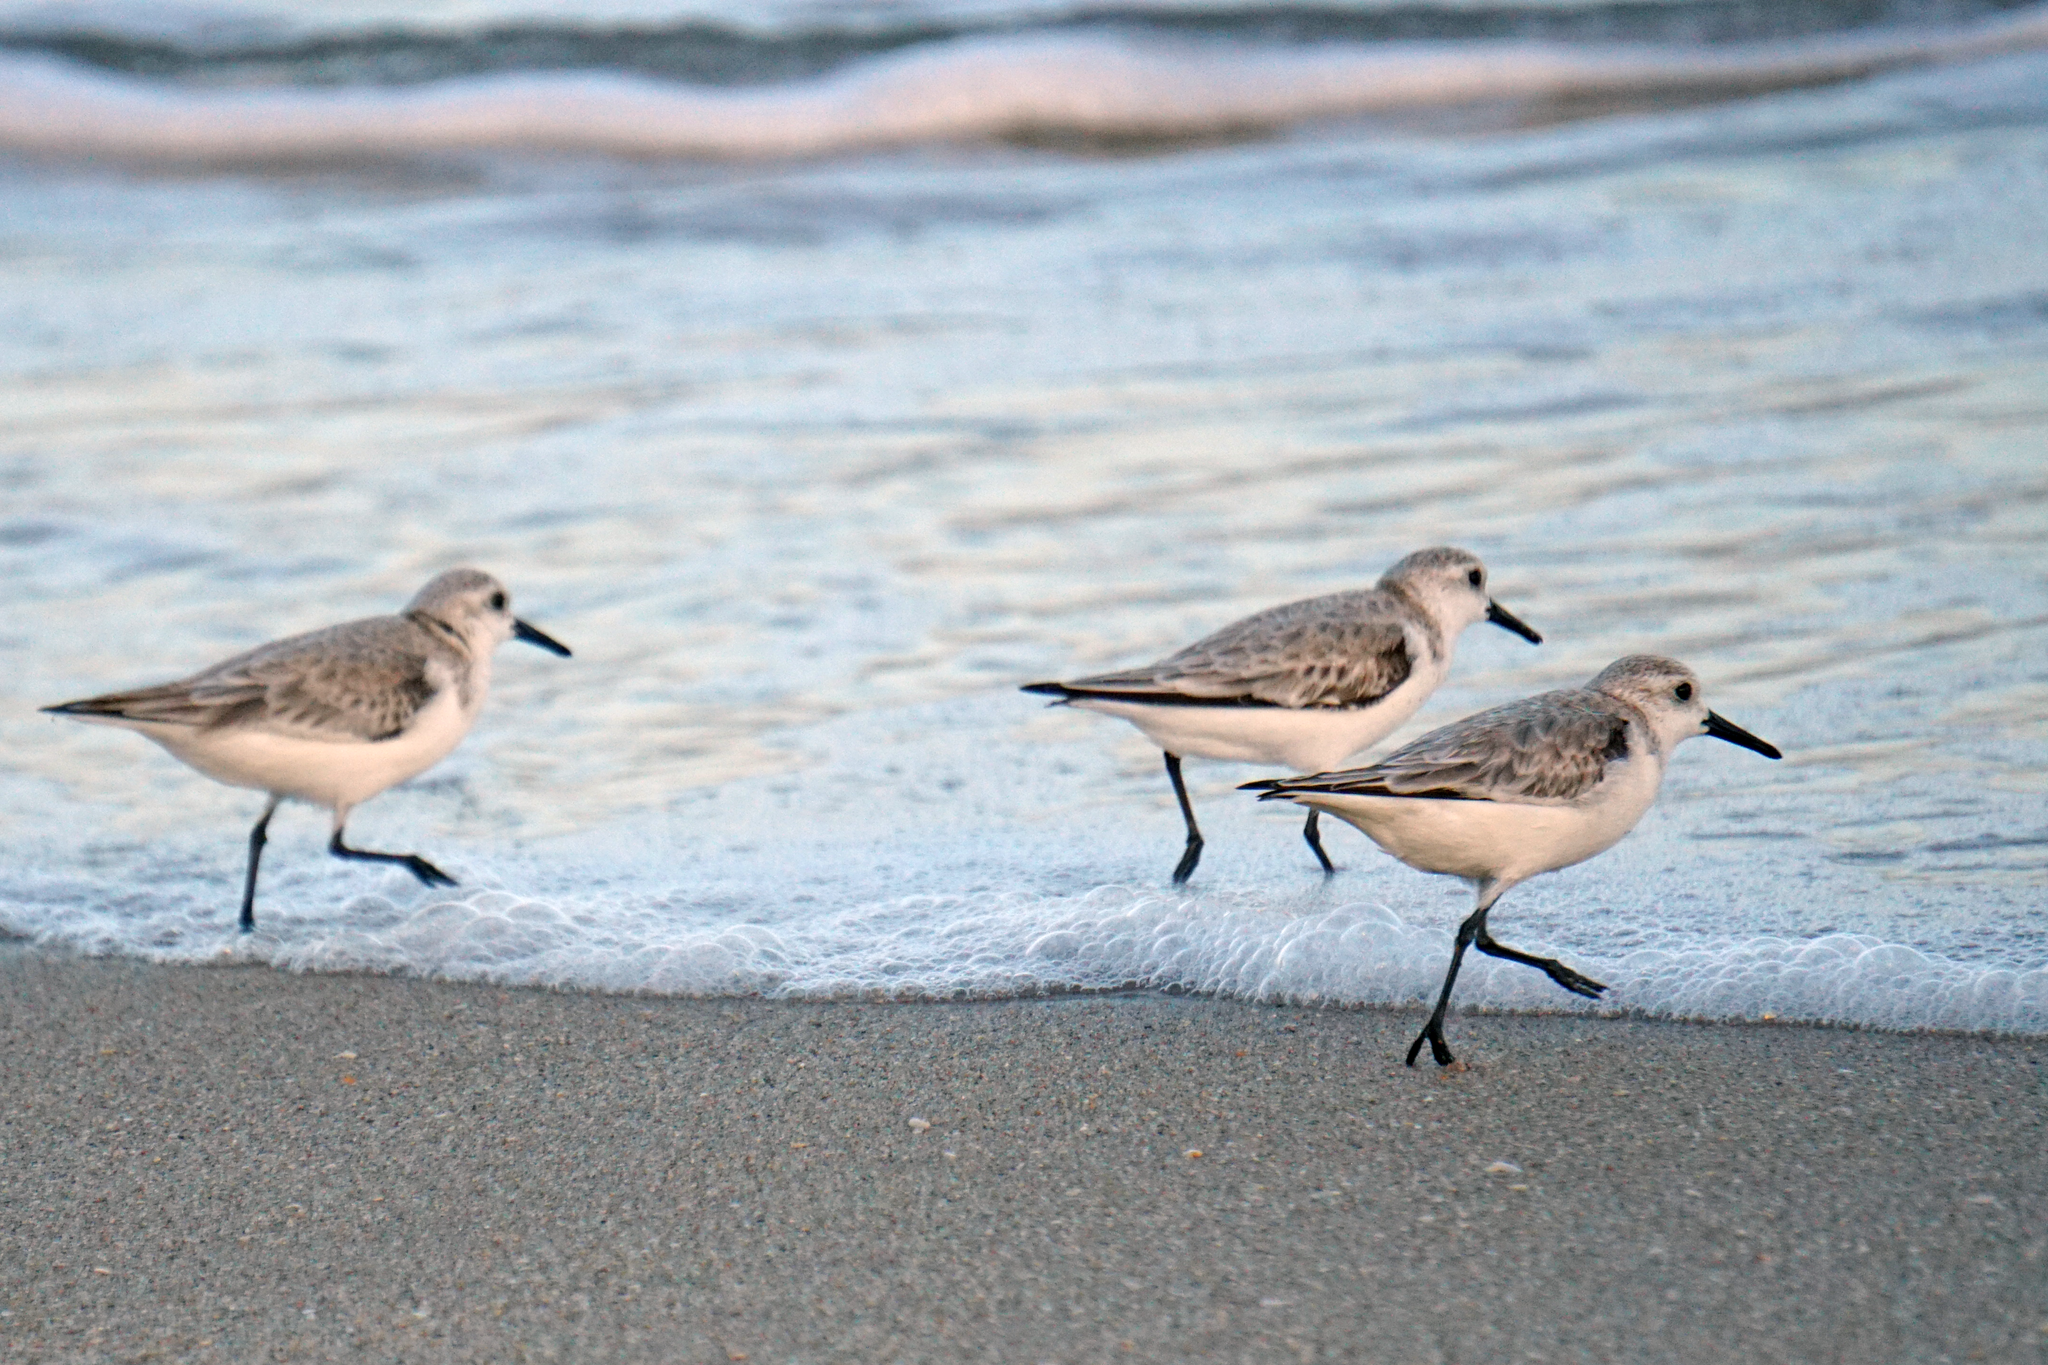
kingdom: Animalia
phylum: Chordata
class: Aves
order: Charadriiformes
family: Scolopacidae
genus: Calidris
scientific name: Calidris alba
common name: Sanderling
